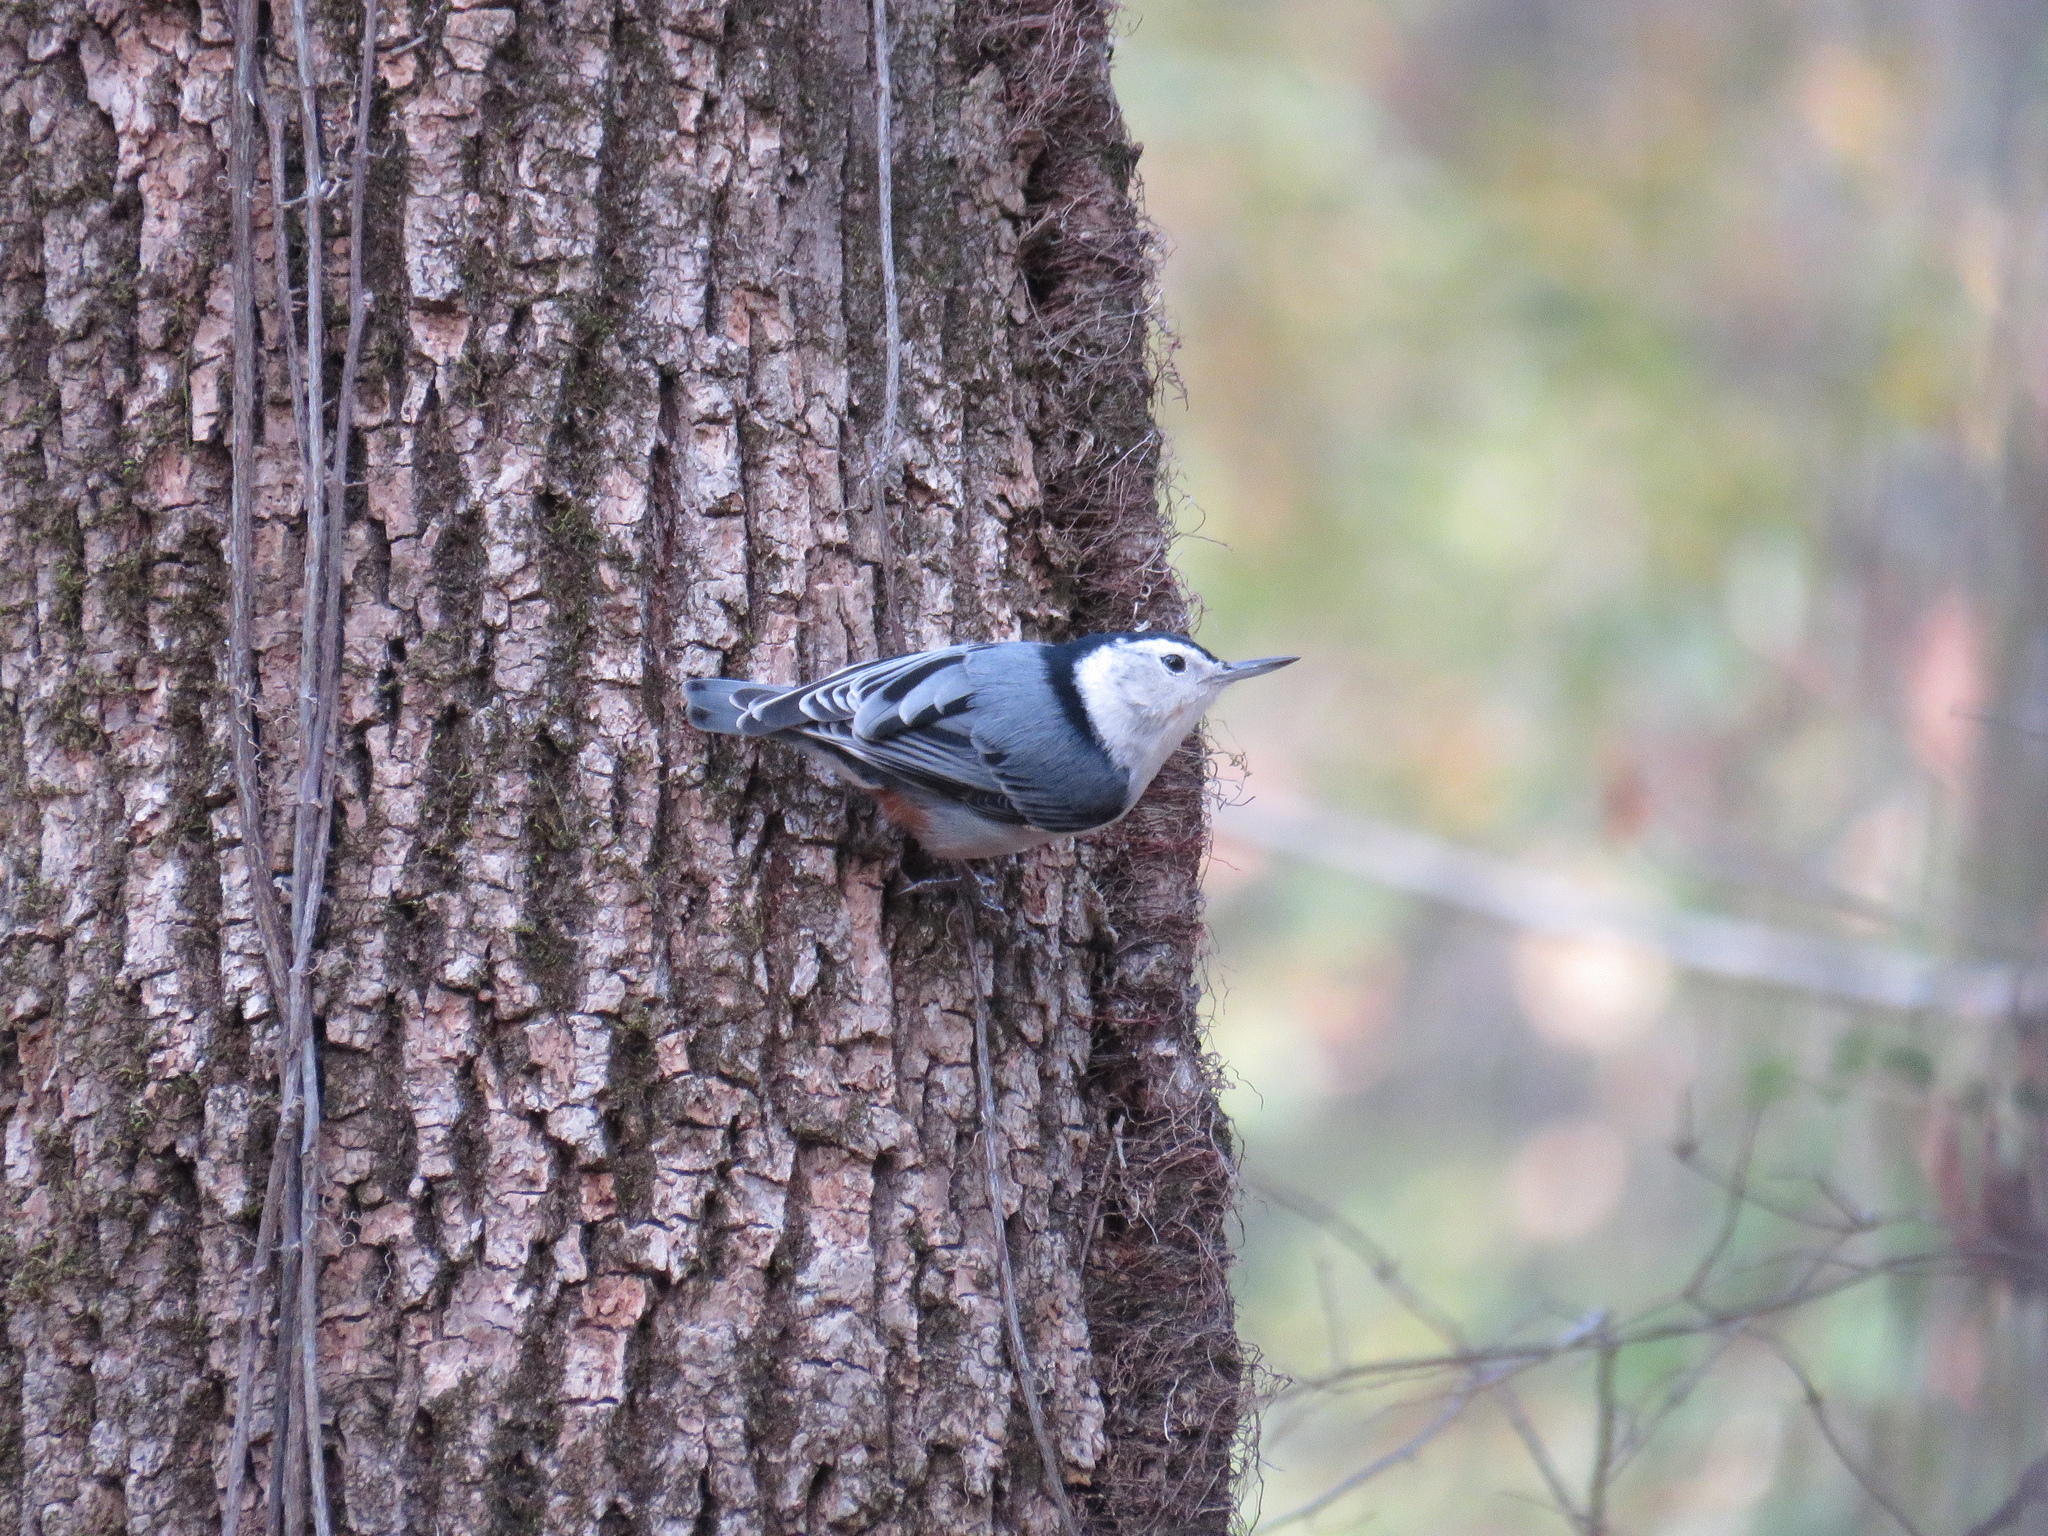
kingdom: Animalia
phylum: Chordata
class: Aves
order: Passeriformes
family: Sittidae
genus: Sitta
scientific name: Sitta carolinensis
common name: White-breasted nuthatch
